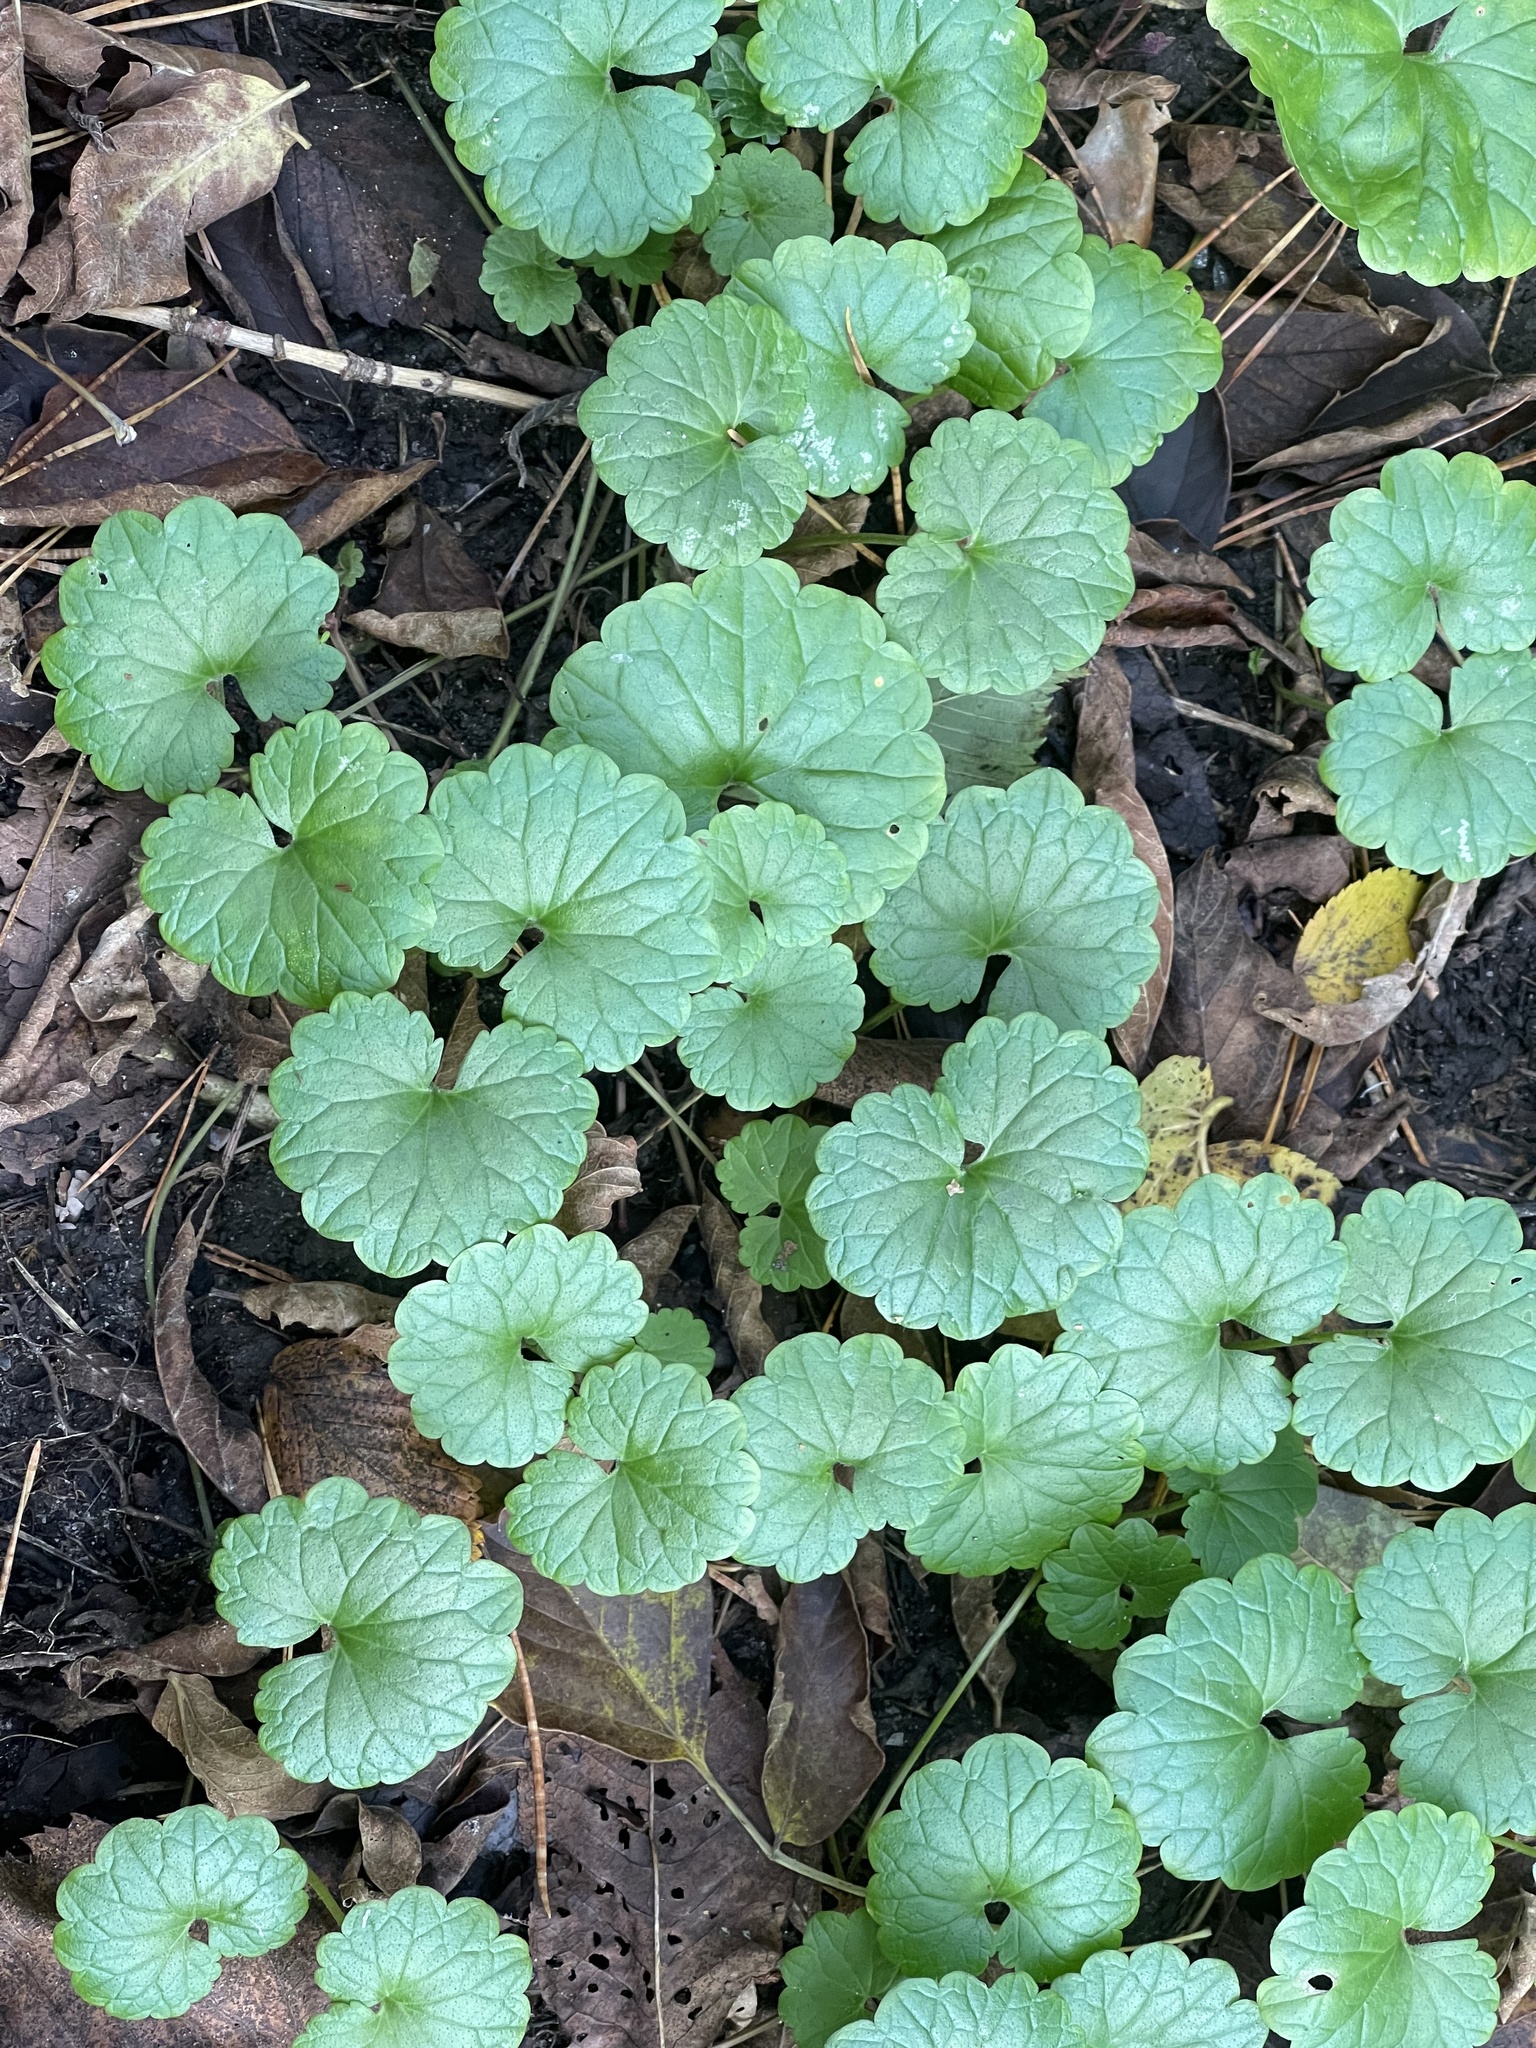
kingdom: Plantae
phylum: Tracheophyta
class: Magnoliopsida
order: Lamiales
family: Lamiaceae
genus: Glechoma
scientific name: Glechoma hederacea
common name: Ground ivy
